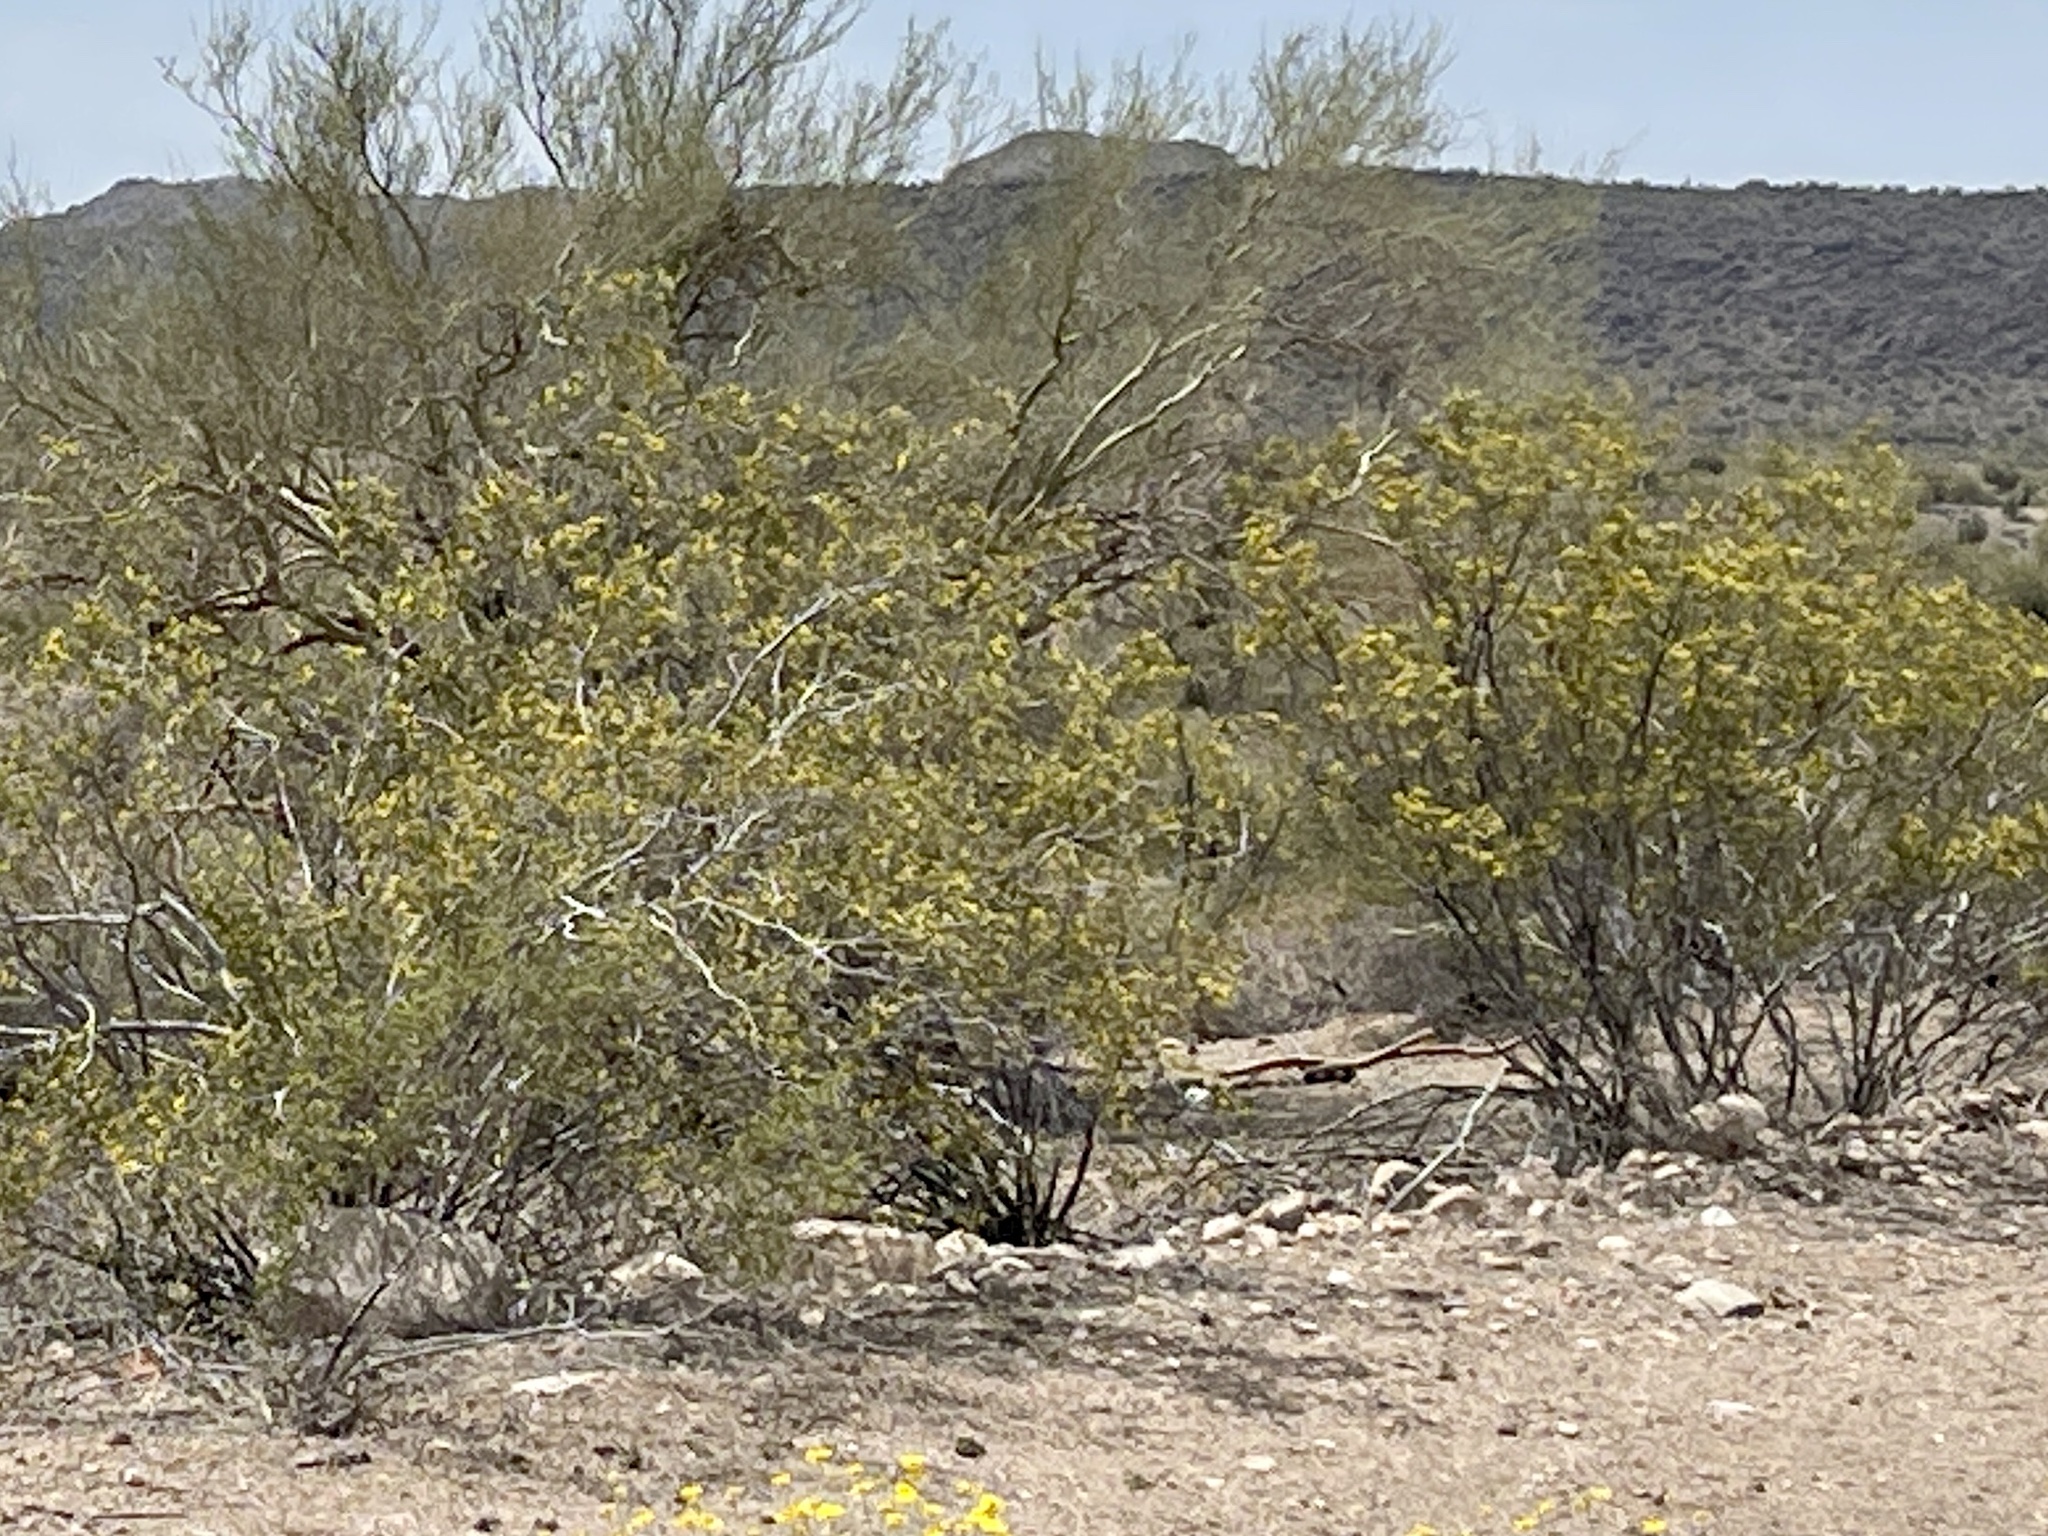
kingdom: Plantae
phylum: Tracheophyta
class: Magnoliopsida
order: Zygophyllales
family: Zygophyllaceae
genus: Larrea
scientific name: Larrea tridentata
